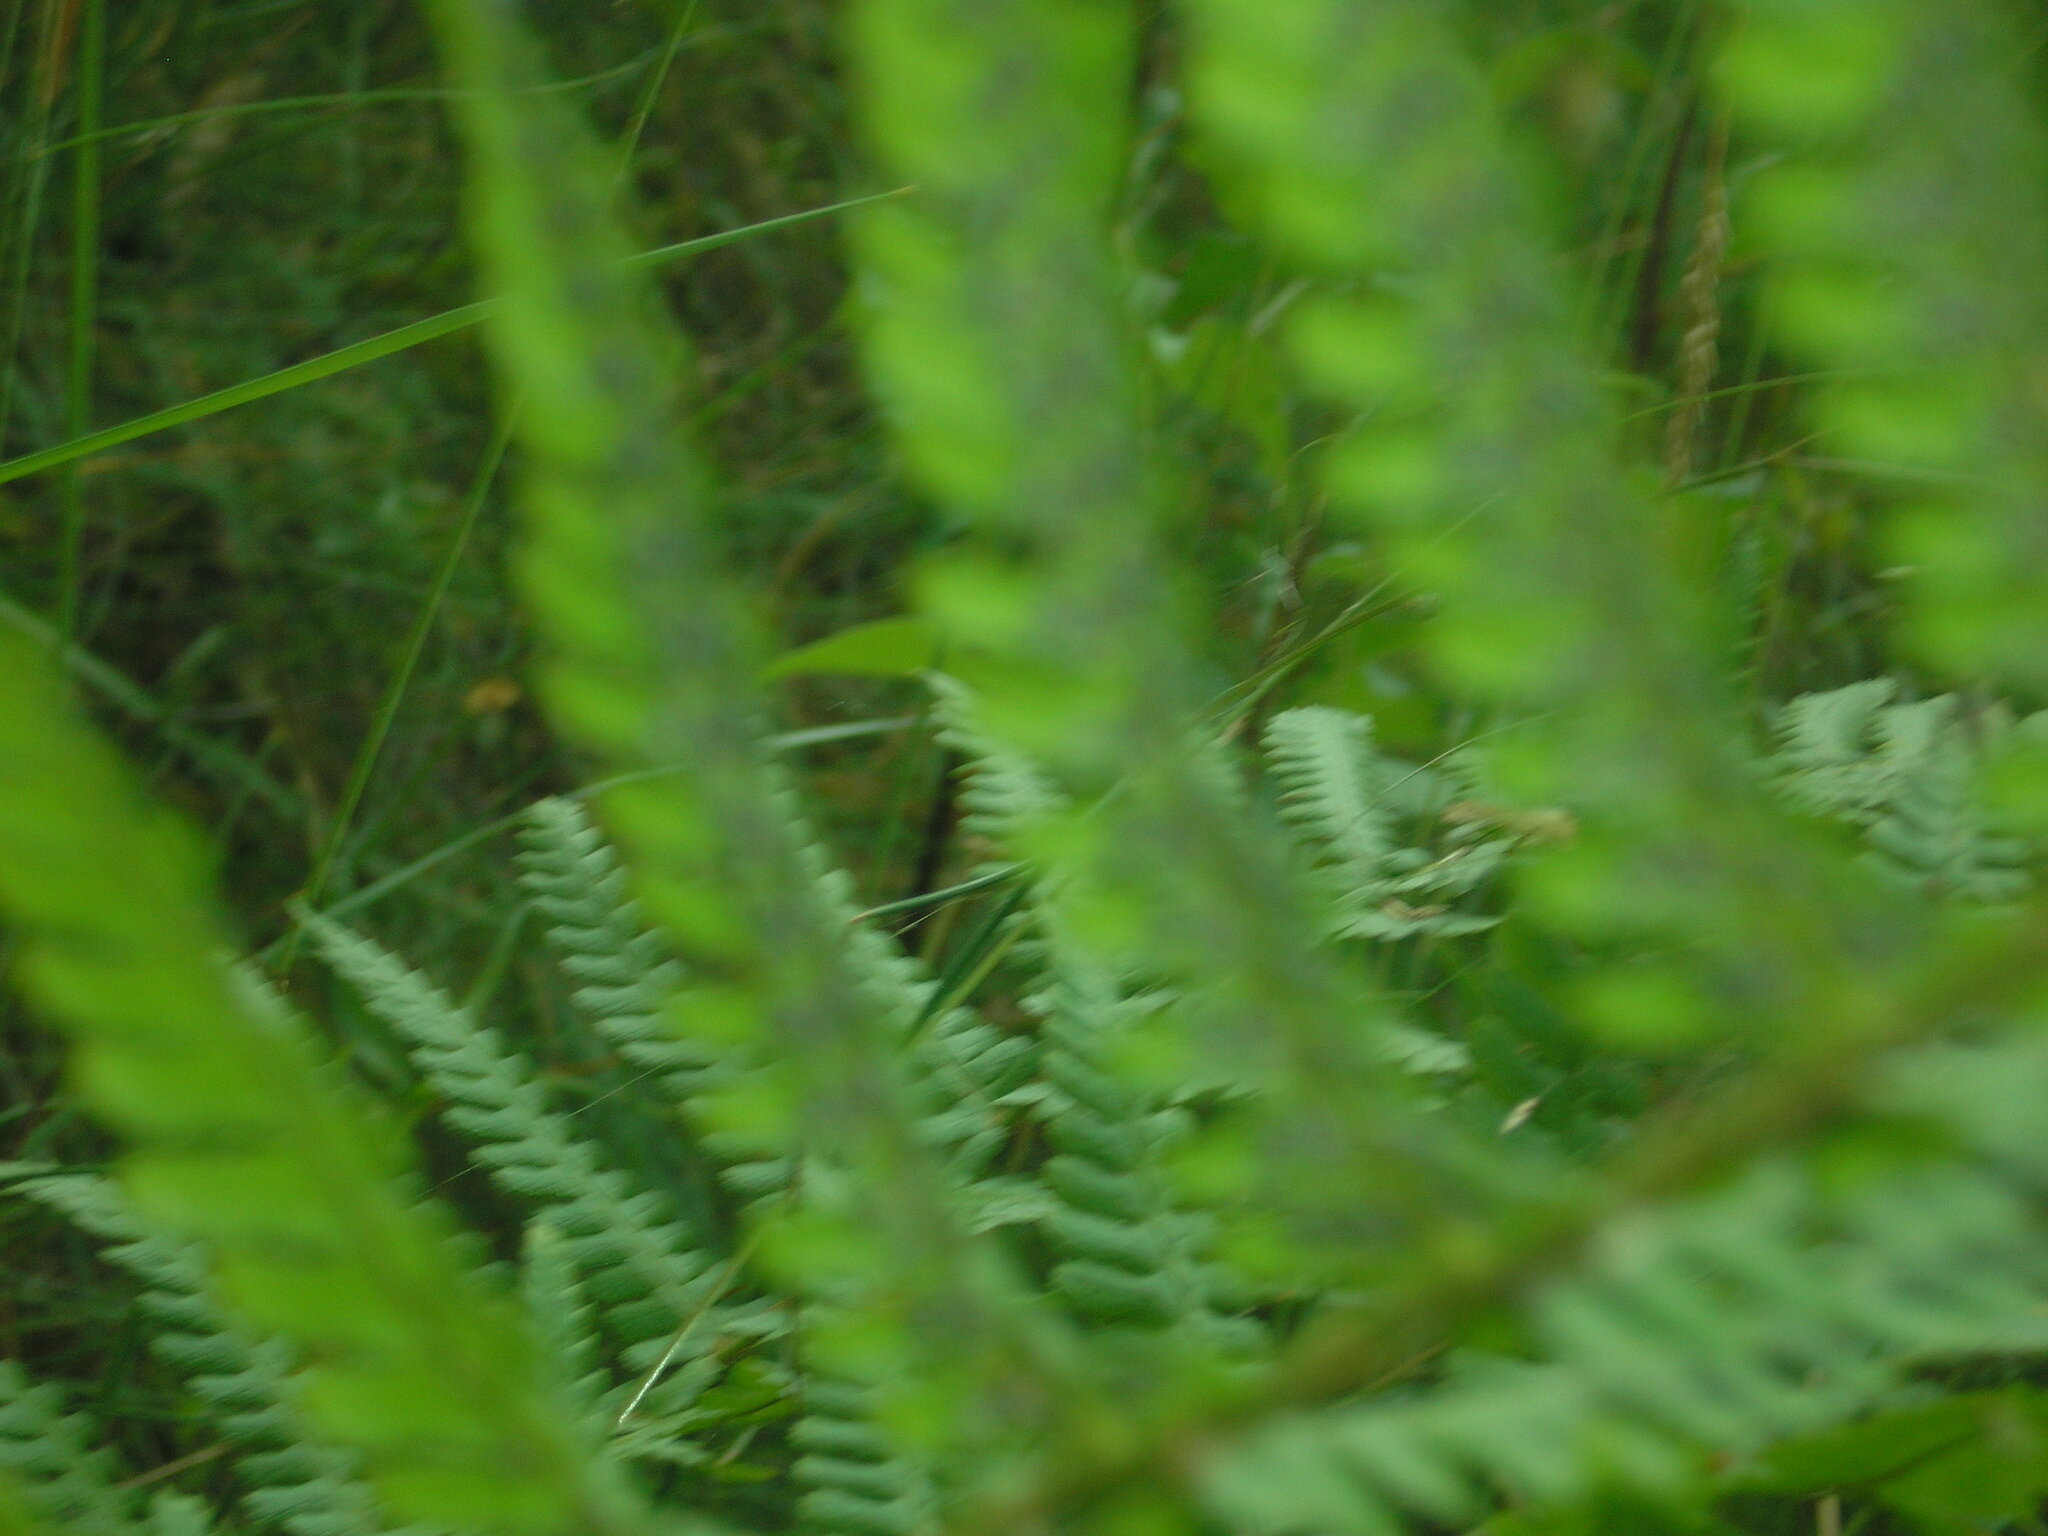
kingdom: Plantae
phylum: Tracheophyta
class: Polypodiopsida
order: Polypodiales
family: Dryopteridaceae
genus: Dryopteris
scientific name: Dryopteris filix-mas
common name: Male fern
